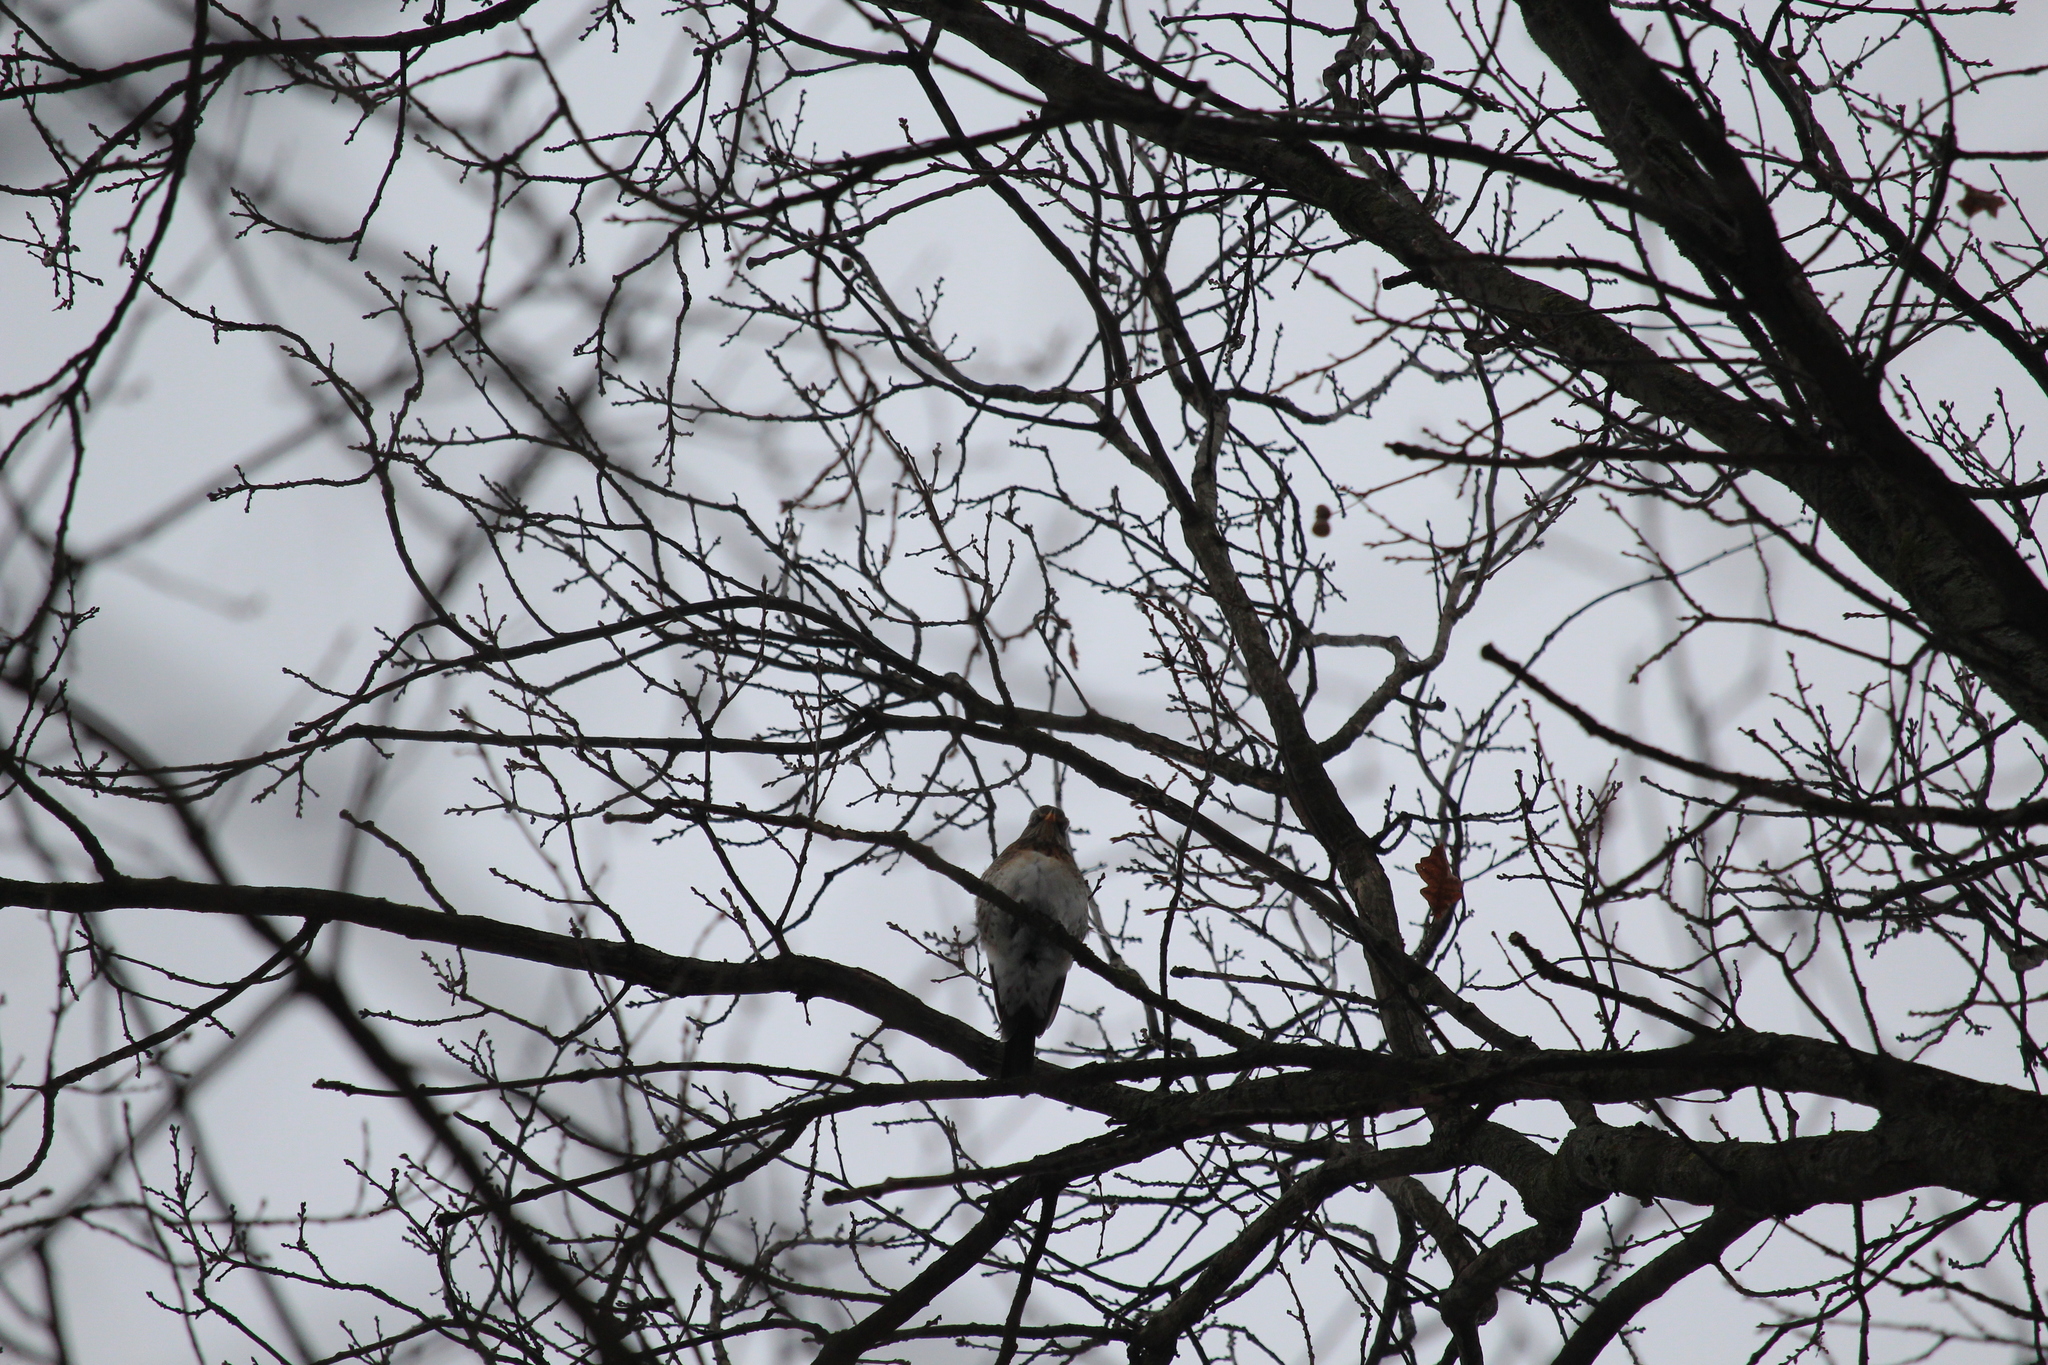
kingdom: Animalia
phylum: Chordata
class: Aves
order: Passeriformes
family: Turdidae
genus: Turdus
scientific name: Turdus pilaris
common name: Fieldfare
